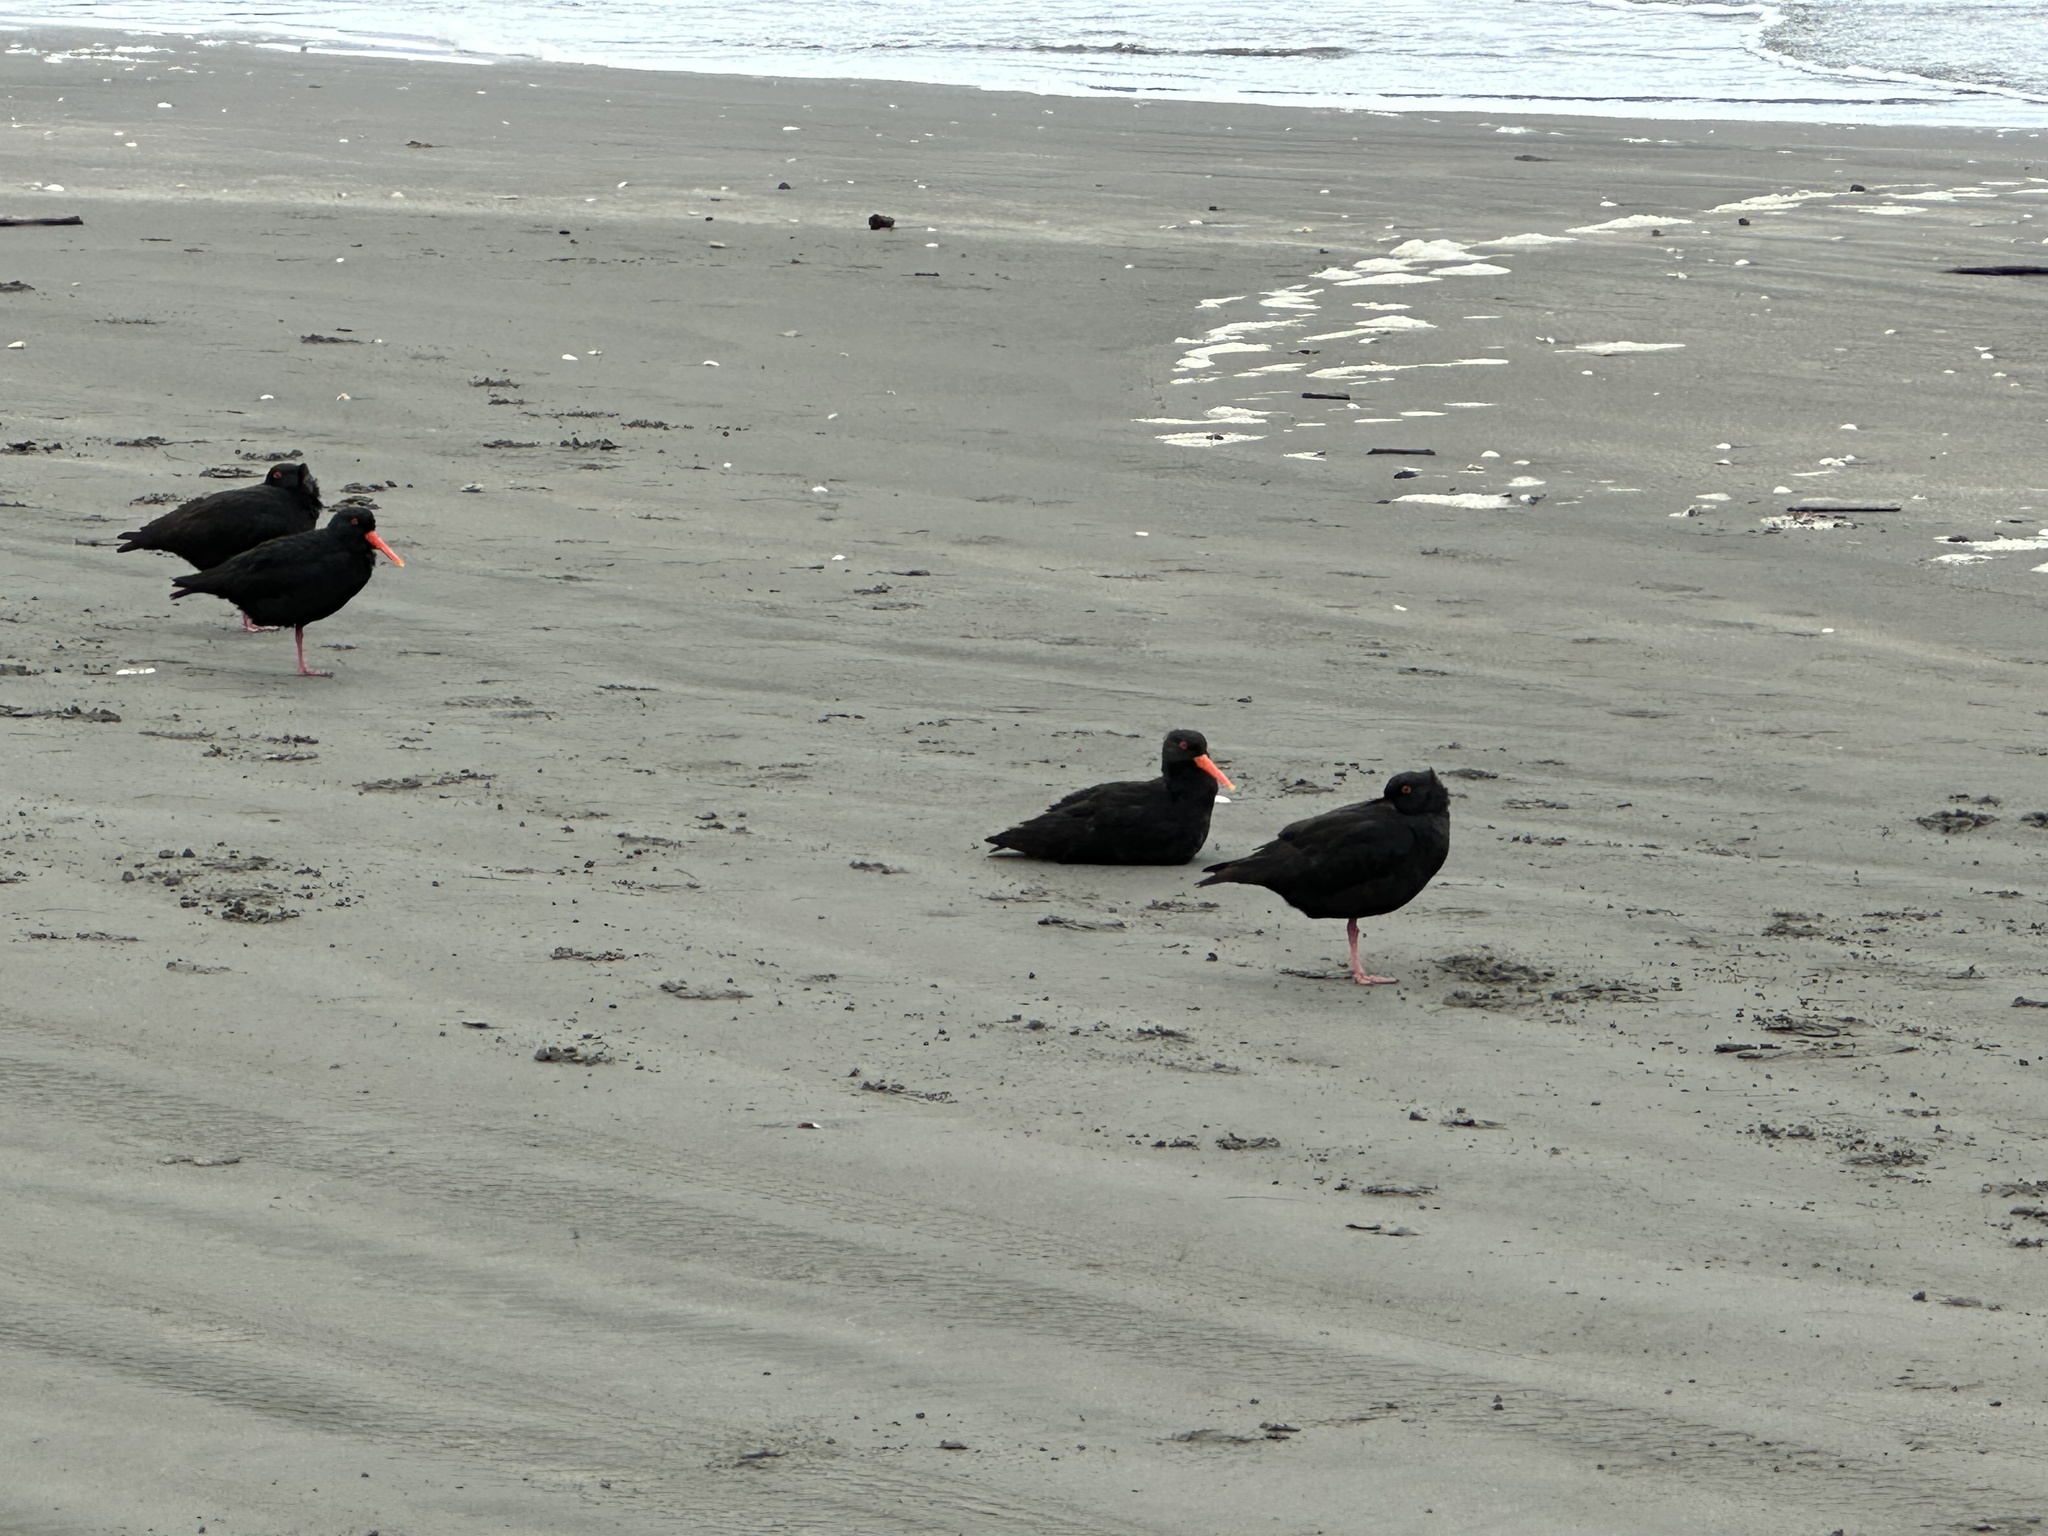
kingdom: Animalia
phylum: Chordata
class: Aves
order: Charadriiformes
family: Haematopodidae
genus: Haematopus
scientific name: Haematopus unicolor
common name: Variable oystercatcher
